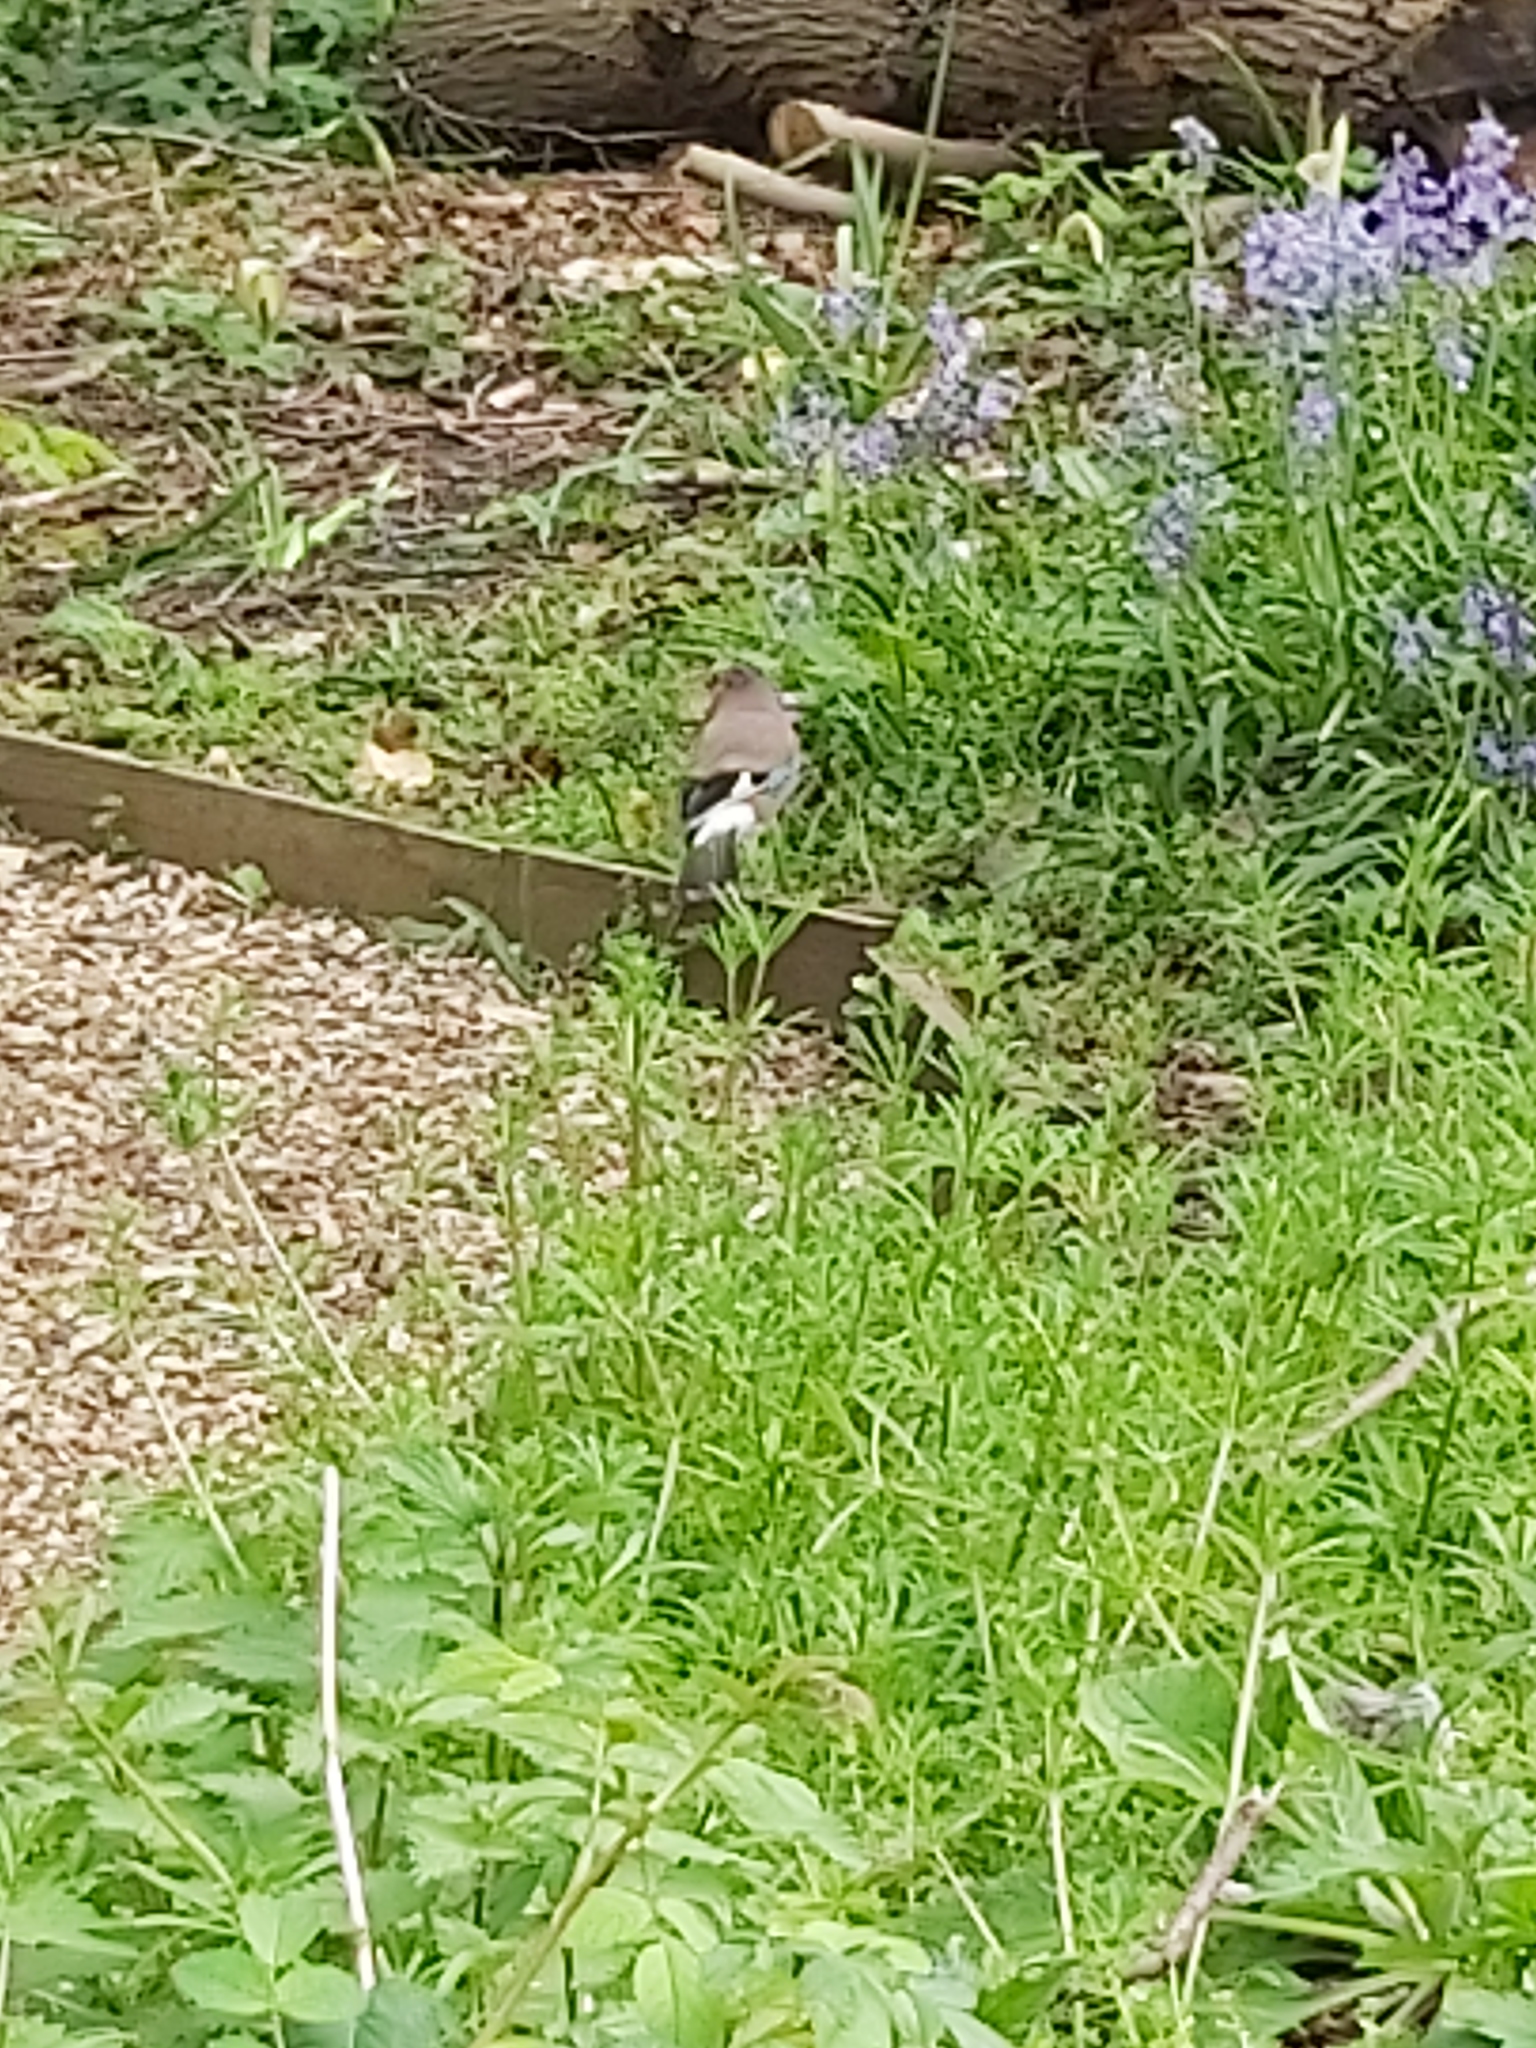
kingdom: Animalia
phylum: Chordata
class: Aves
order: Passeriformes
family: Corvidae
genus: Garrulus
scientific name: Garrulus glandarius
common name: Eurasian jay
